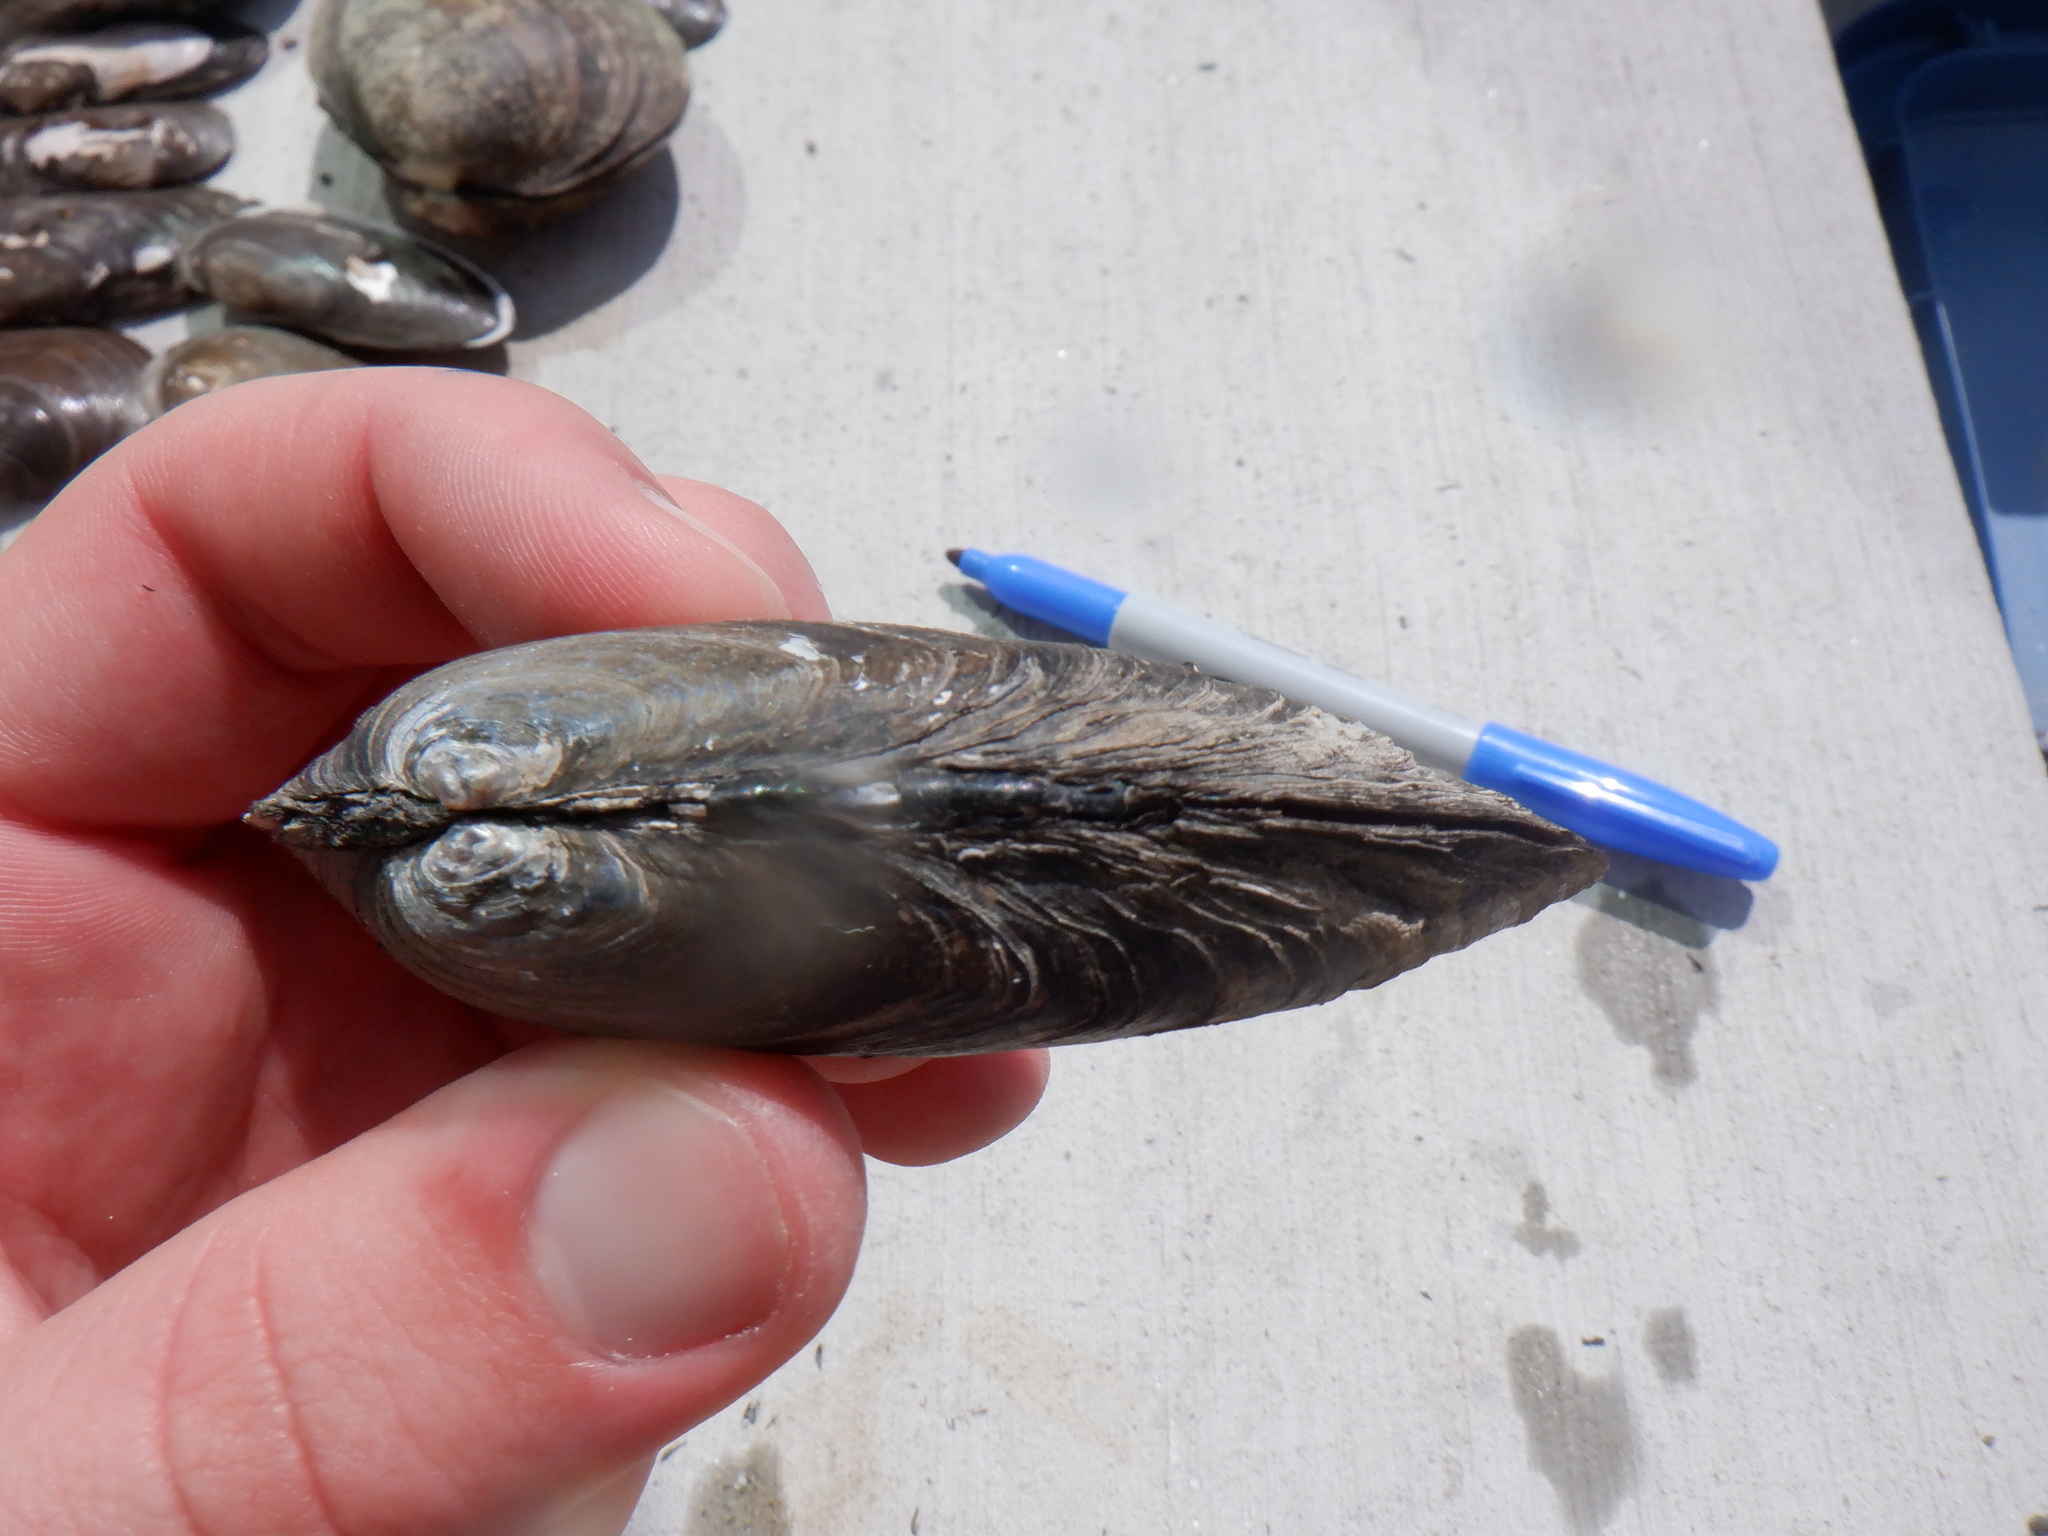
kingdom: Animalia
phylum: Mollusca
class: Bivalvia
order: Unionida
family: Unionidae
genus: Eurynia
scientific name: Eurynia dilatata
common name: Spike
